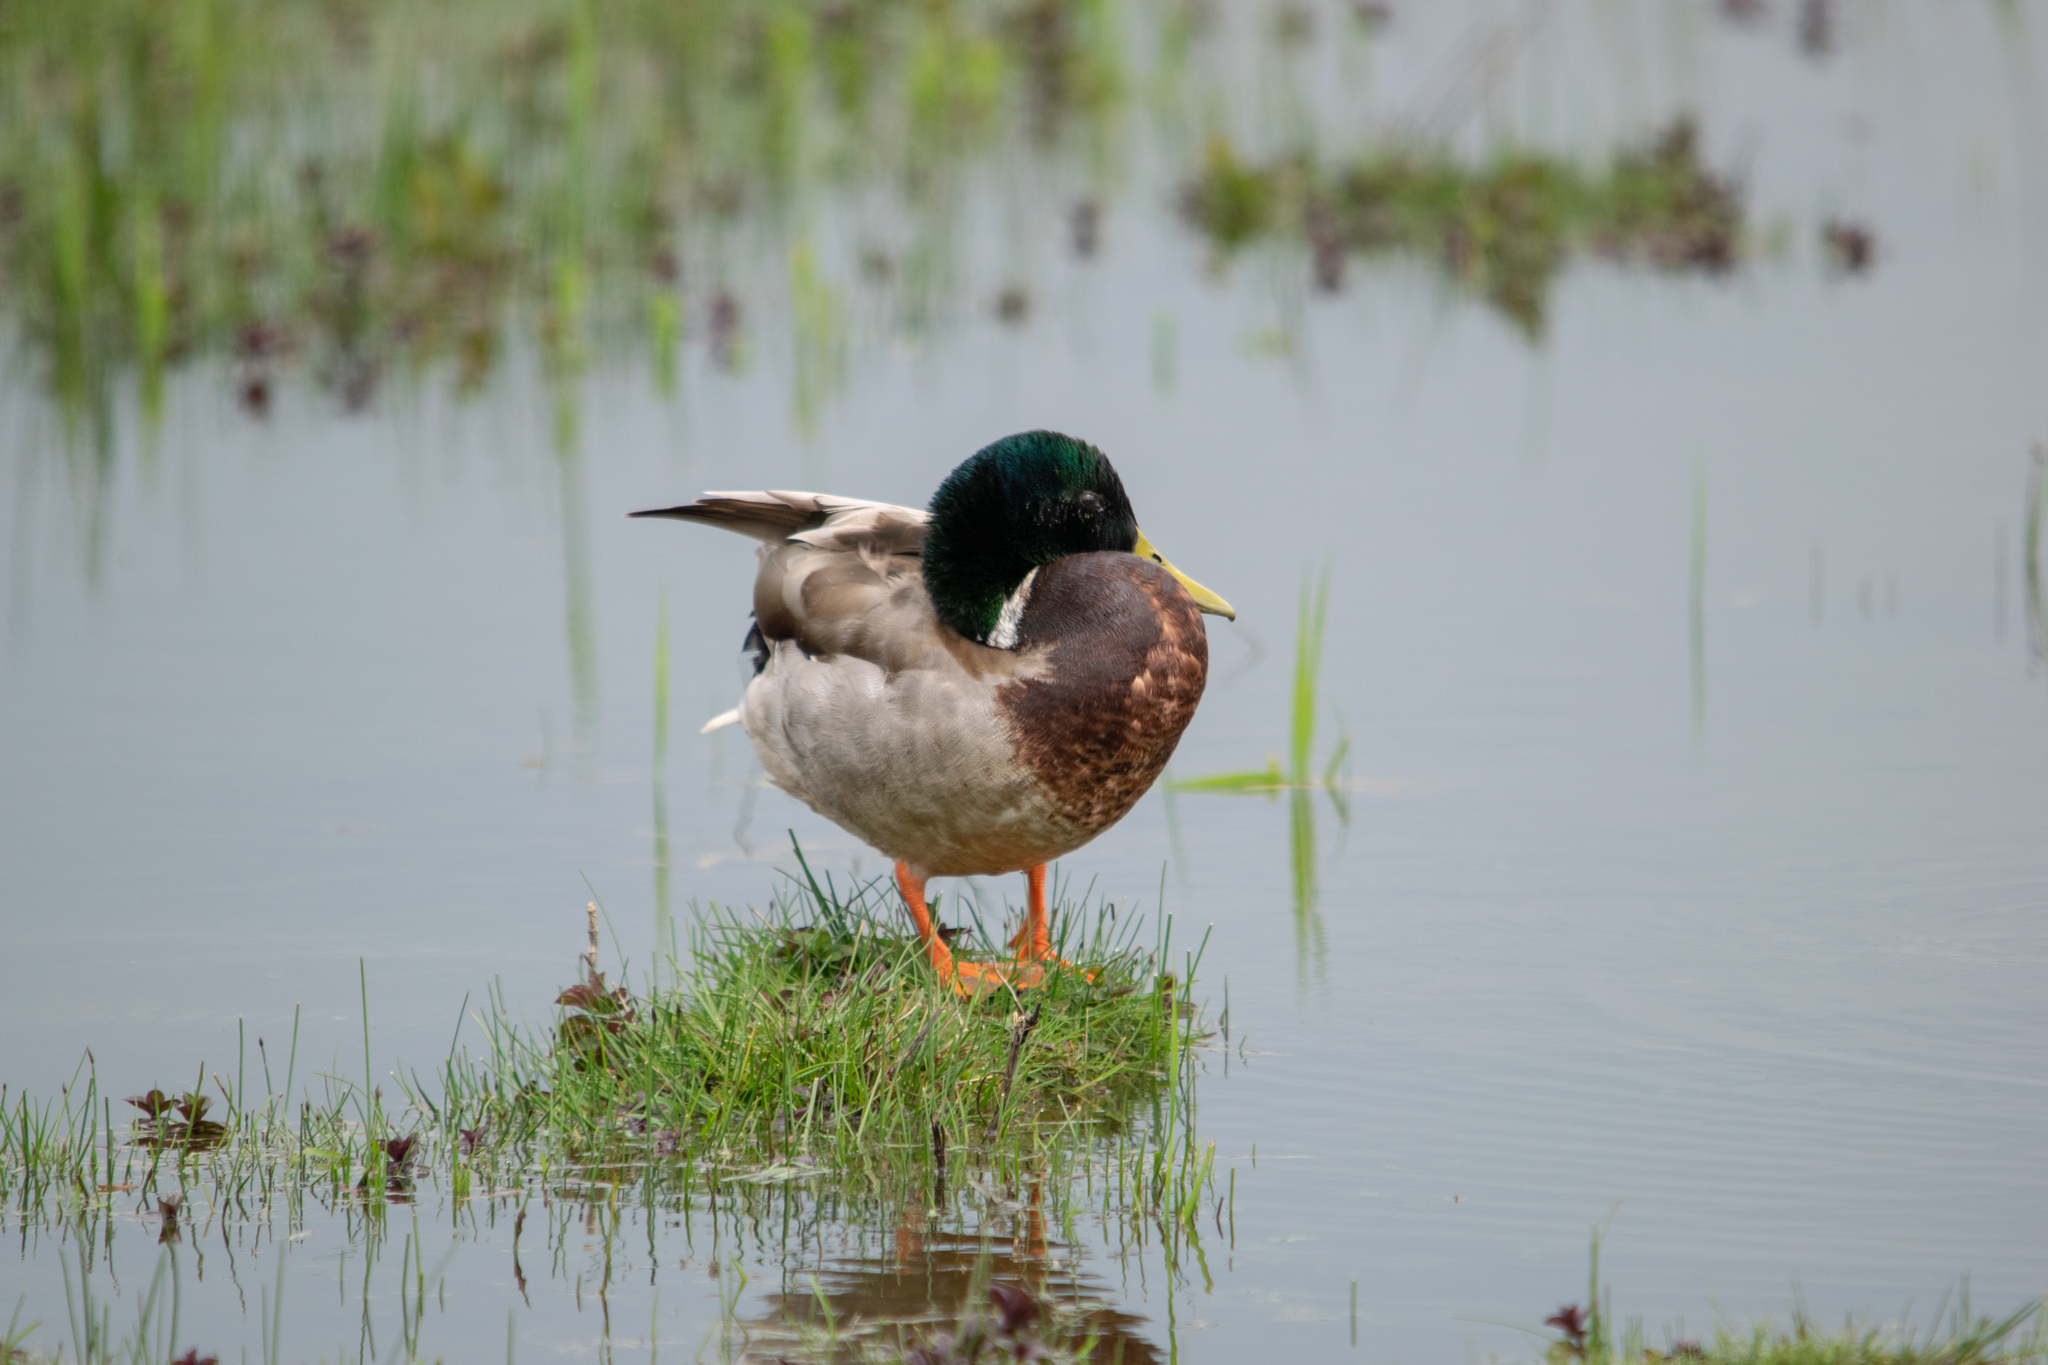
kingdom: Animalia
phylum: Chordata
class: Aves
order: Anseriformes
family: Anatidae
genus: Anas
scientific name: Anas platyrhynchos
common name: Mallard
